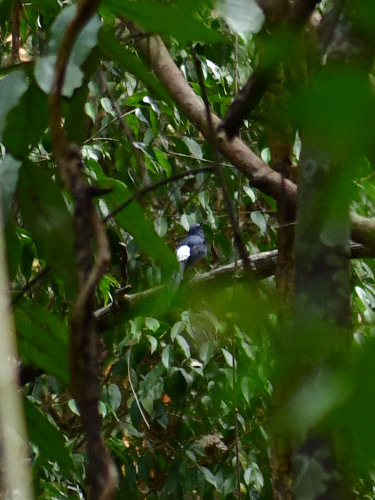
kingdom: Animalia
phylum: Chordata
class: Aves
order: Passeriformes
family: Muscicapidae
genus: Copsychus
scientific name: Copsychus malabaricus
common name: White-rumped shama
